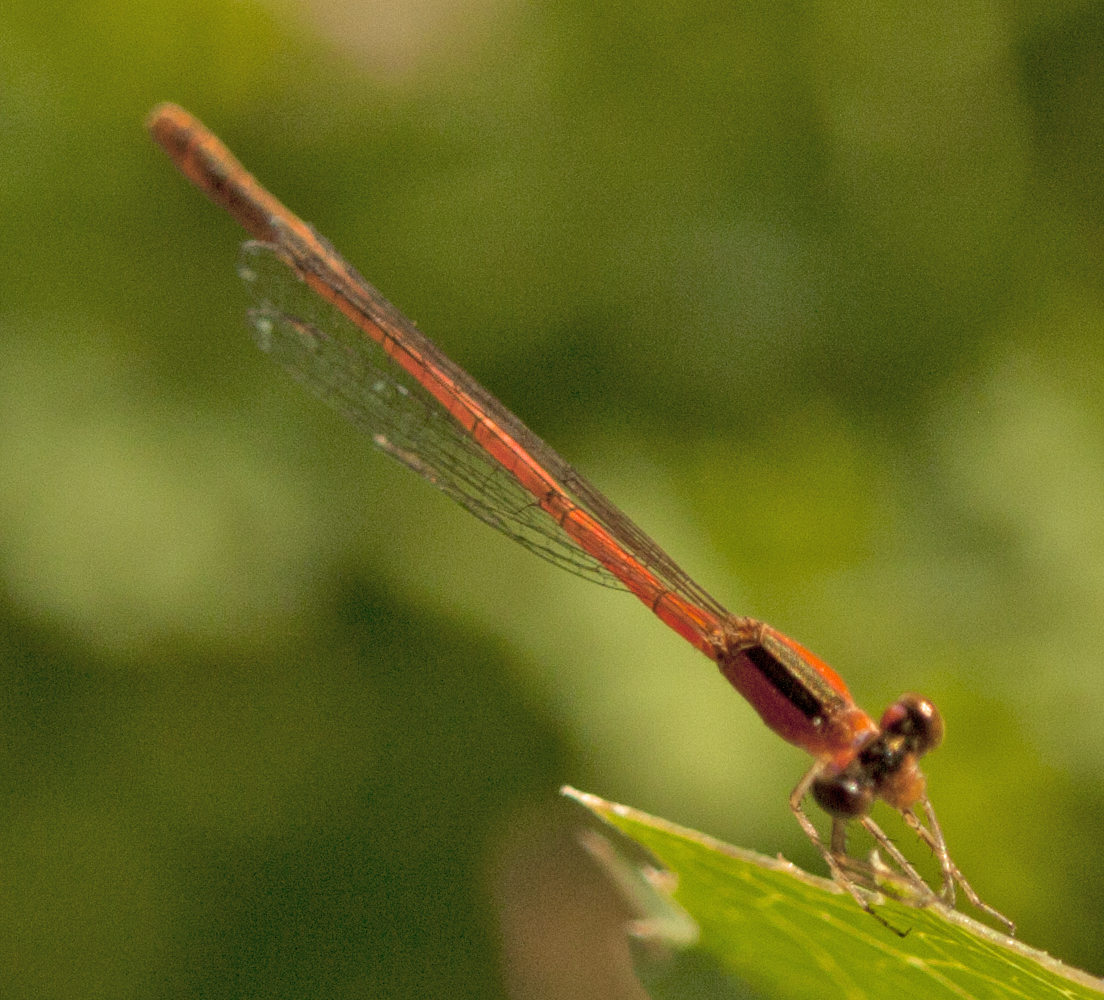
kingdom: Animalia
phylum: Arthropoda
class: Insecta
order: Odonata
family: Coenagrionidae
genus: Agriocnemis
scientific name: Agriocnemis pygmaea
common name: Pygmy wisp
